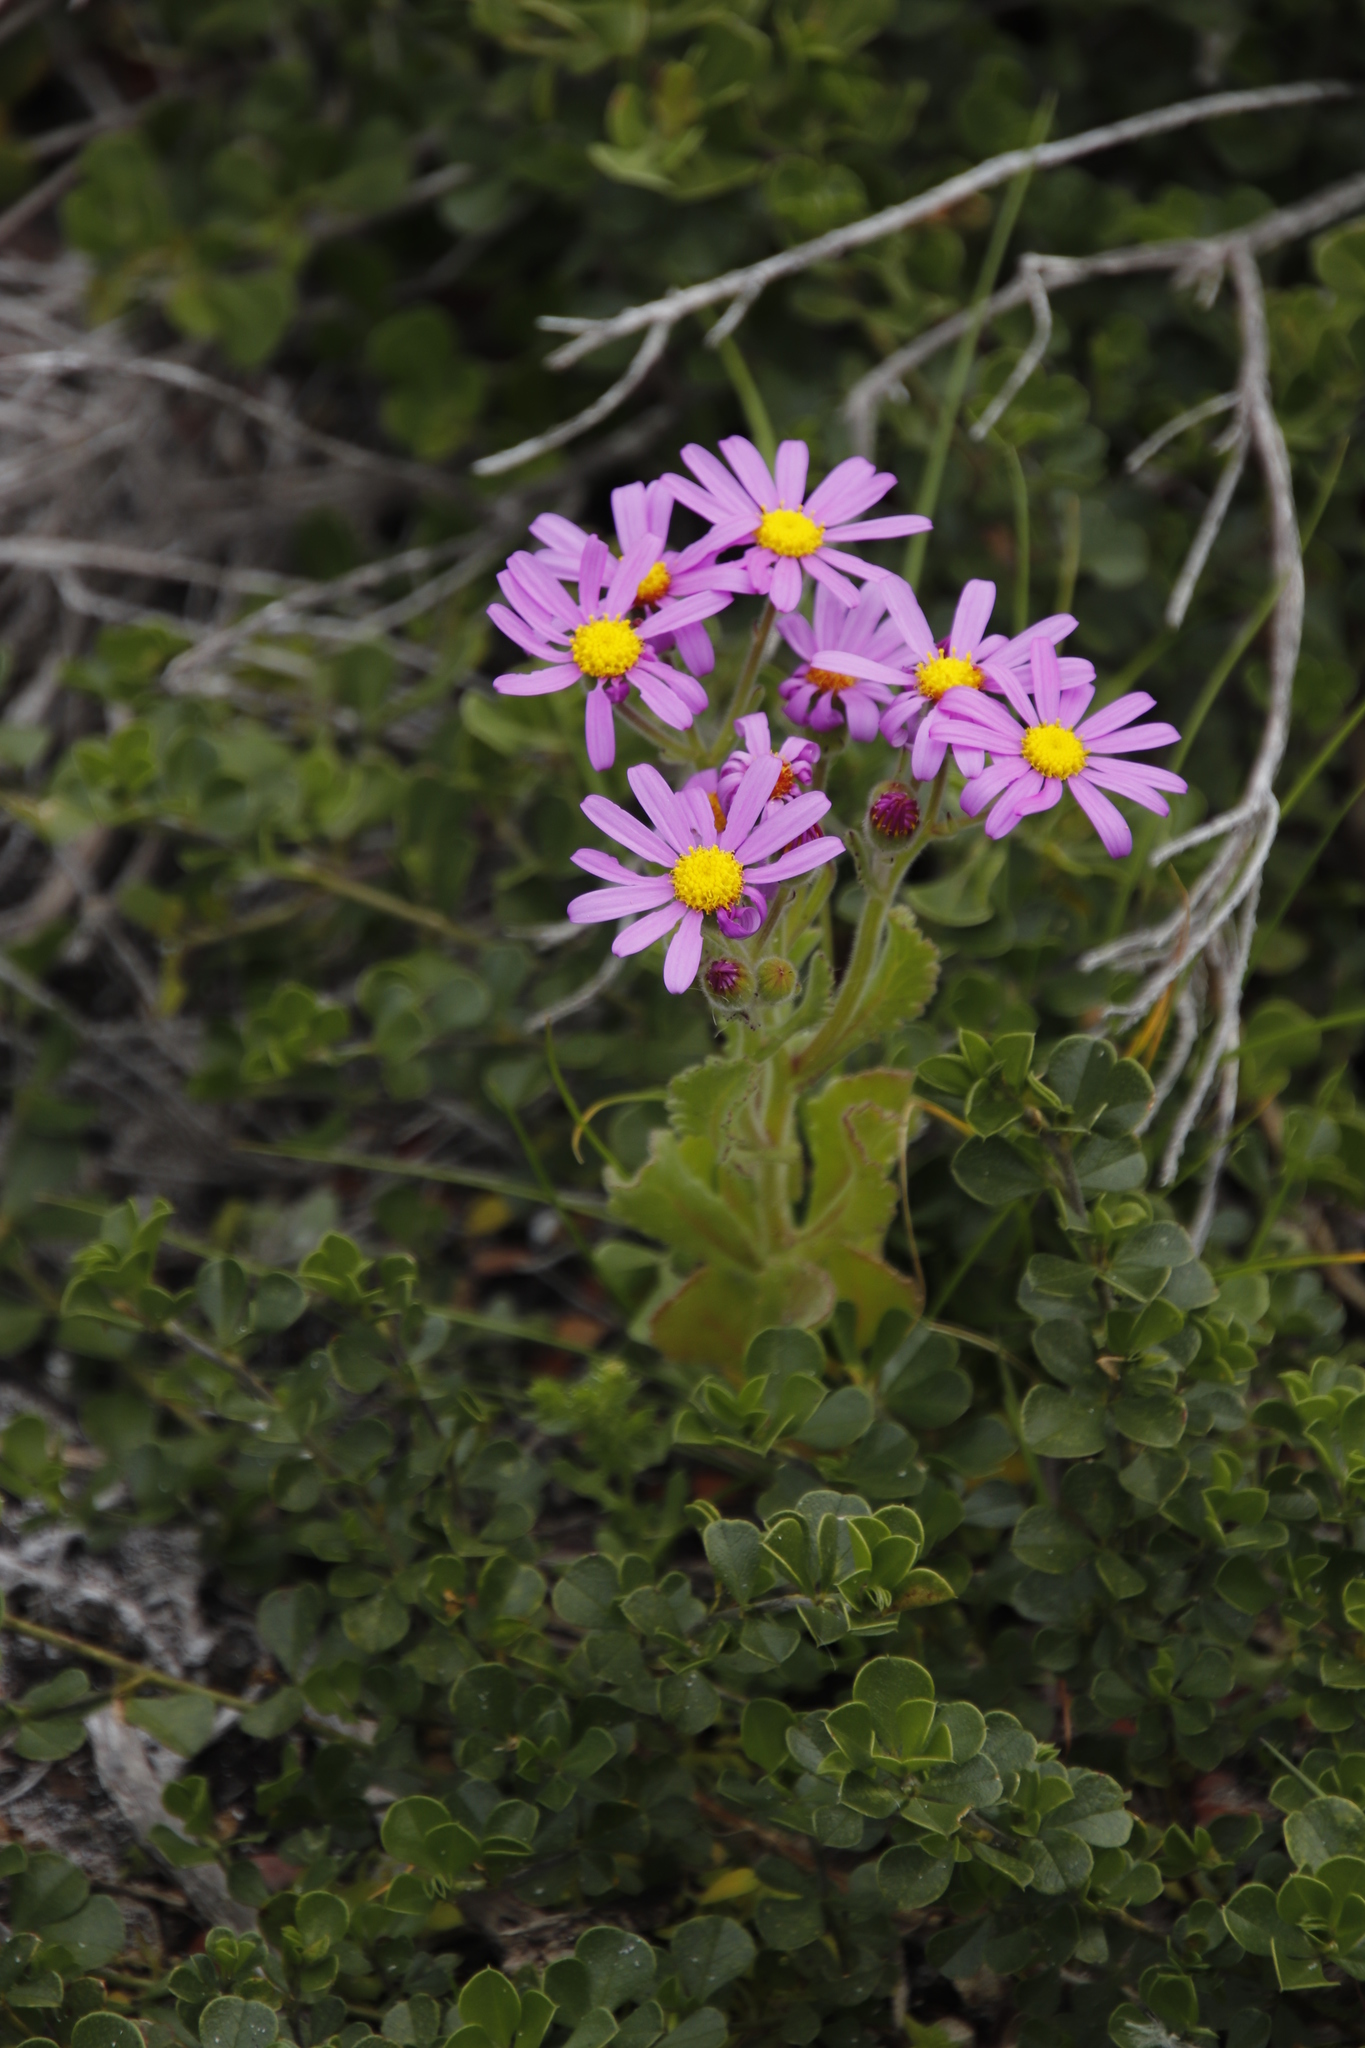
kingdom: Plantae
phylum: Tracheophyta
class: Magnoliopsida
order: Asterales
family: Asteraceae
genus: Senecio
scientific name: Senecio arenarius
